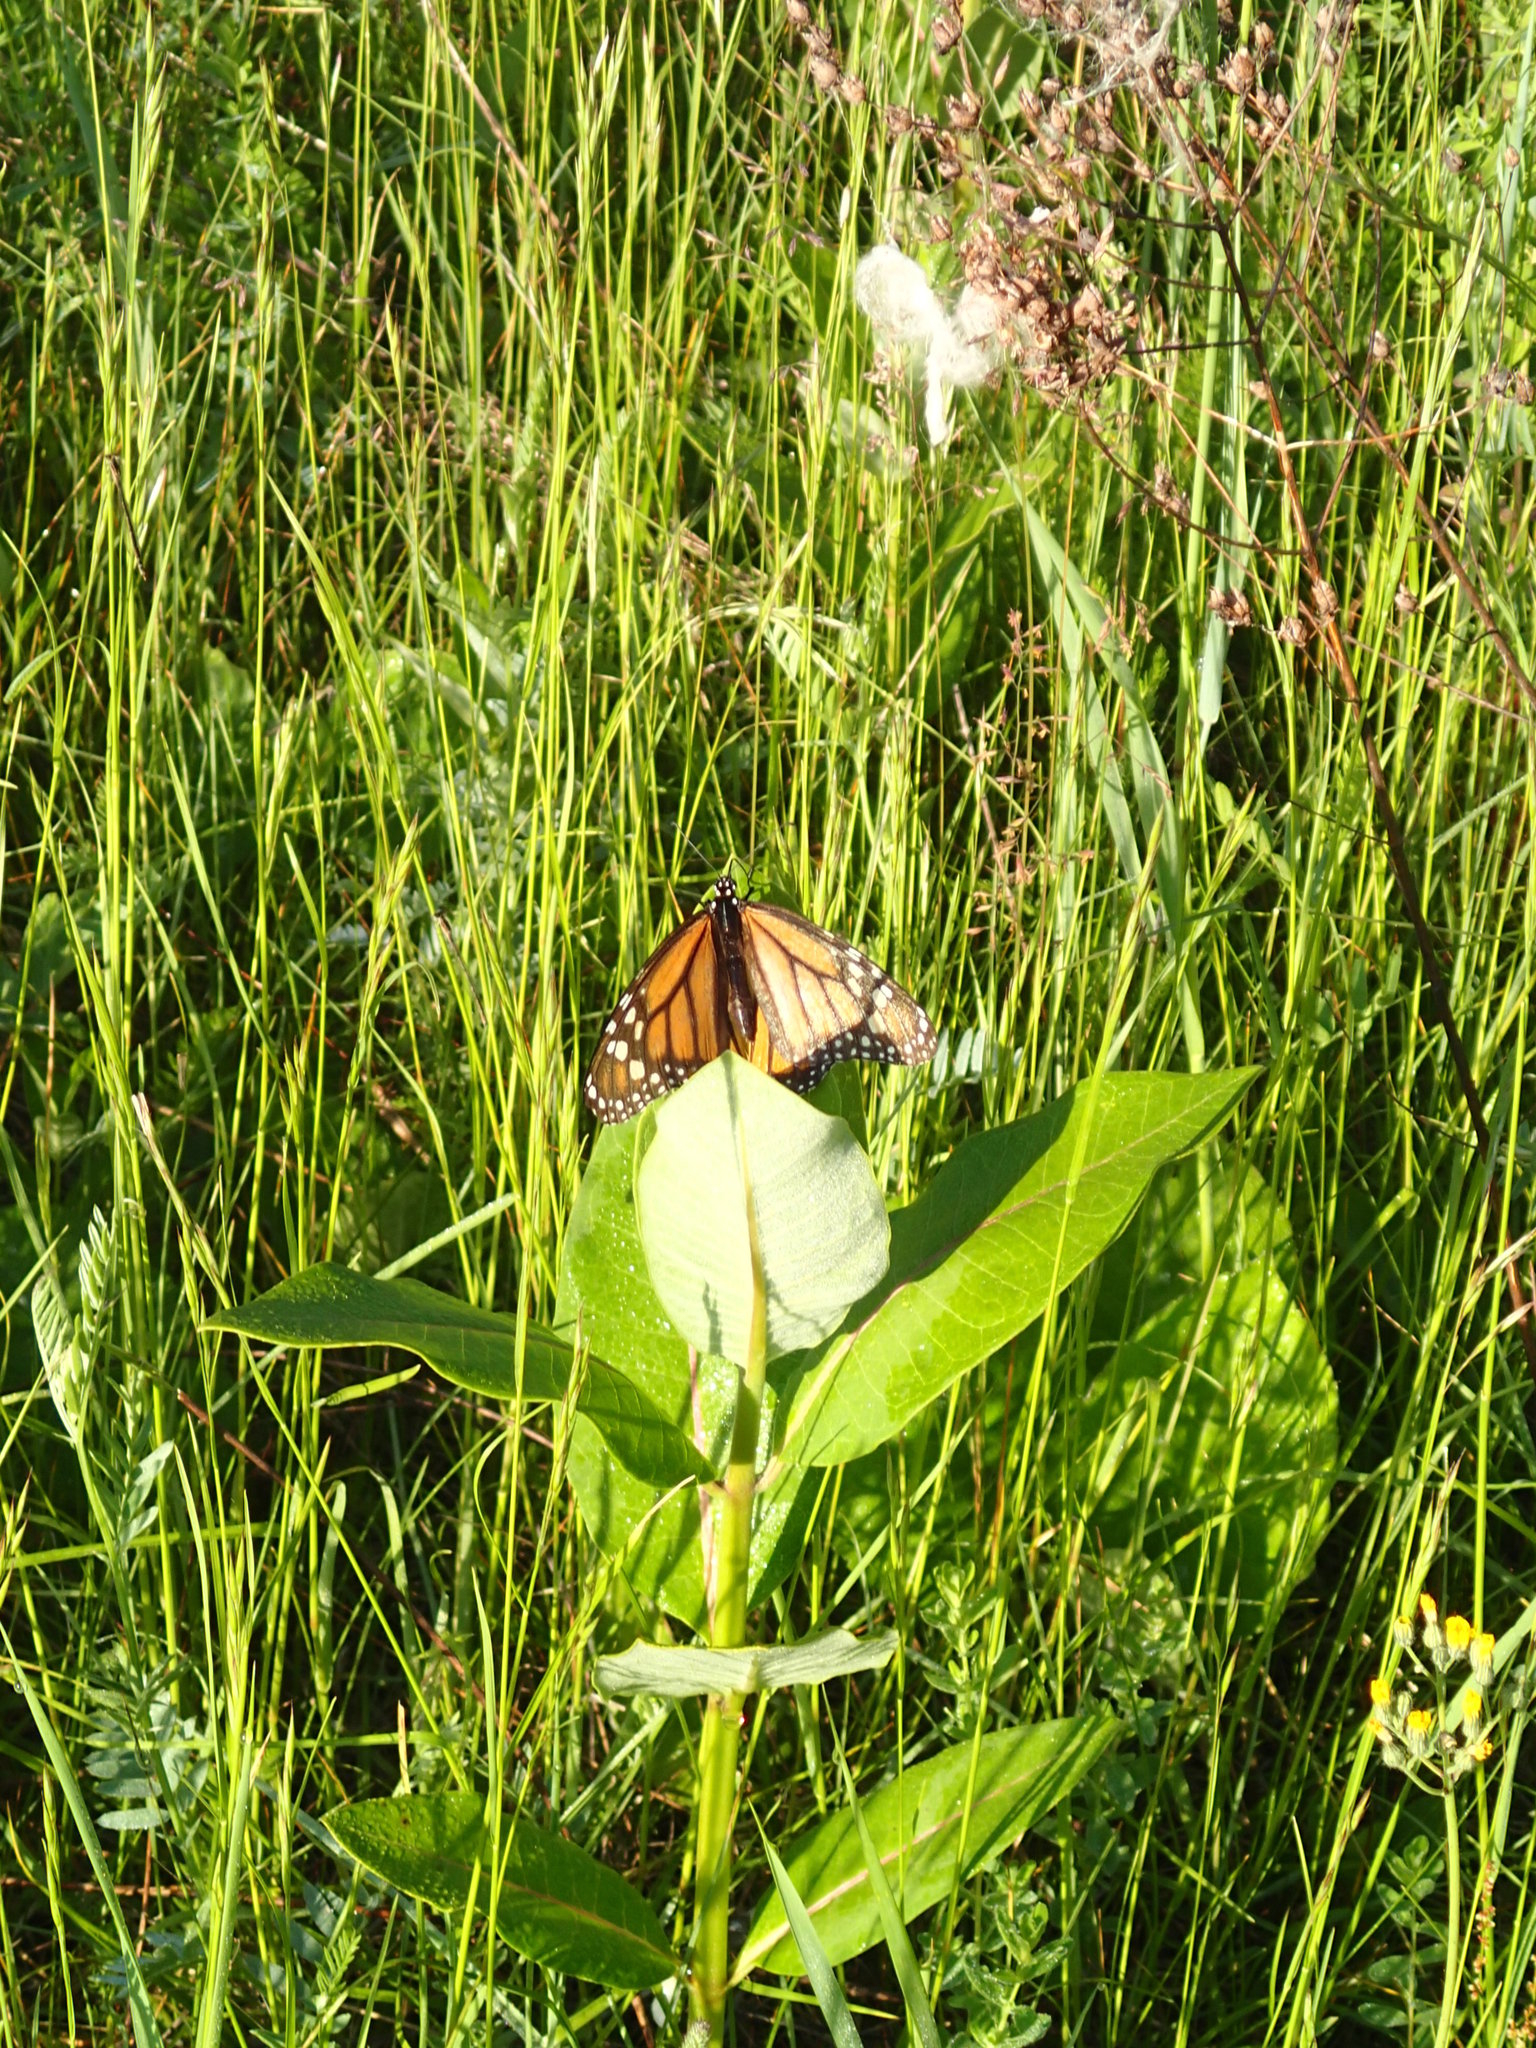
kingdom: Animalia
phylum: Arthropoda
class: Insecta
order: Lepidoptera
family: Nymphalidae
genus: Danaus
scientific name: Danaus plexippus
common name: Monarch
